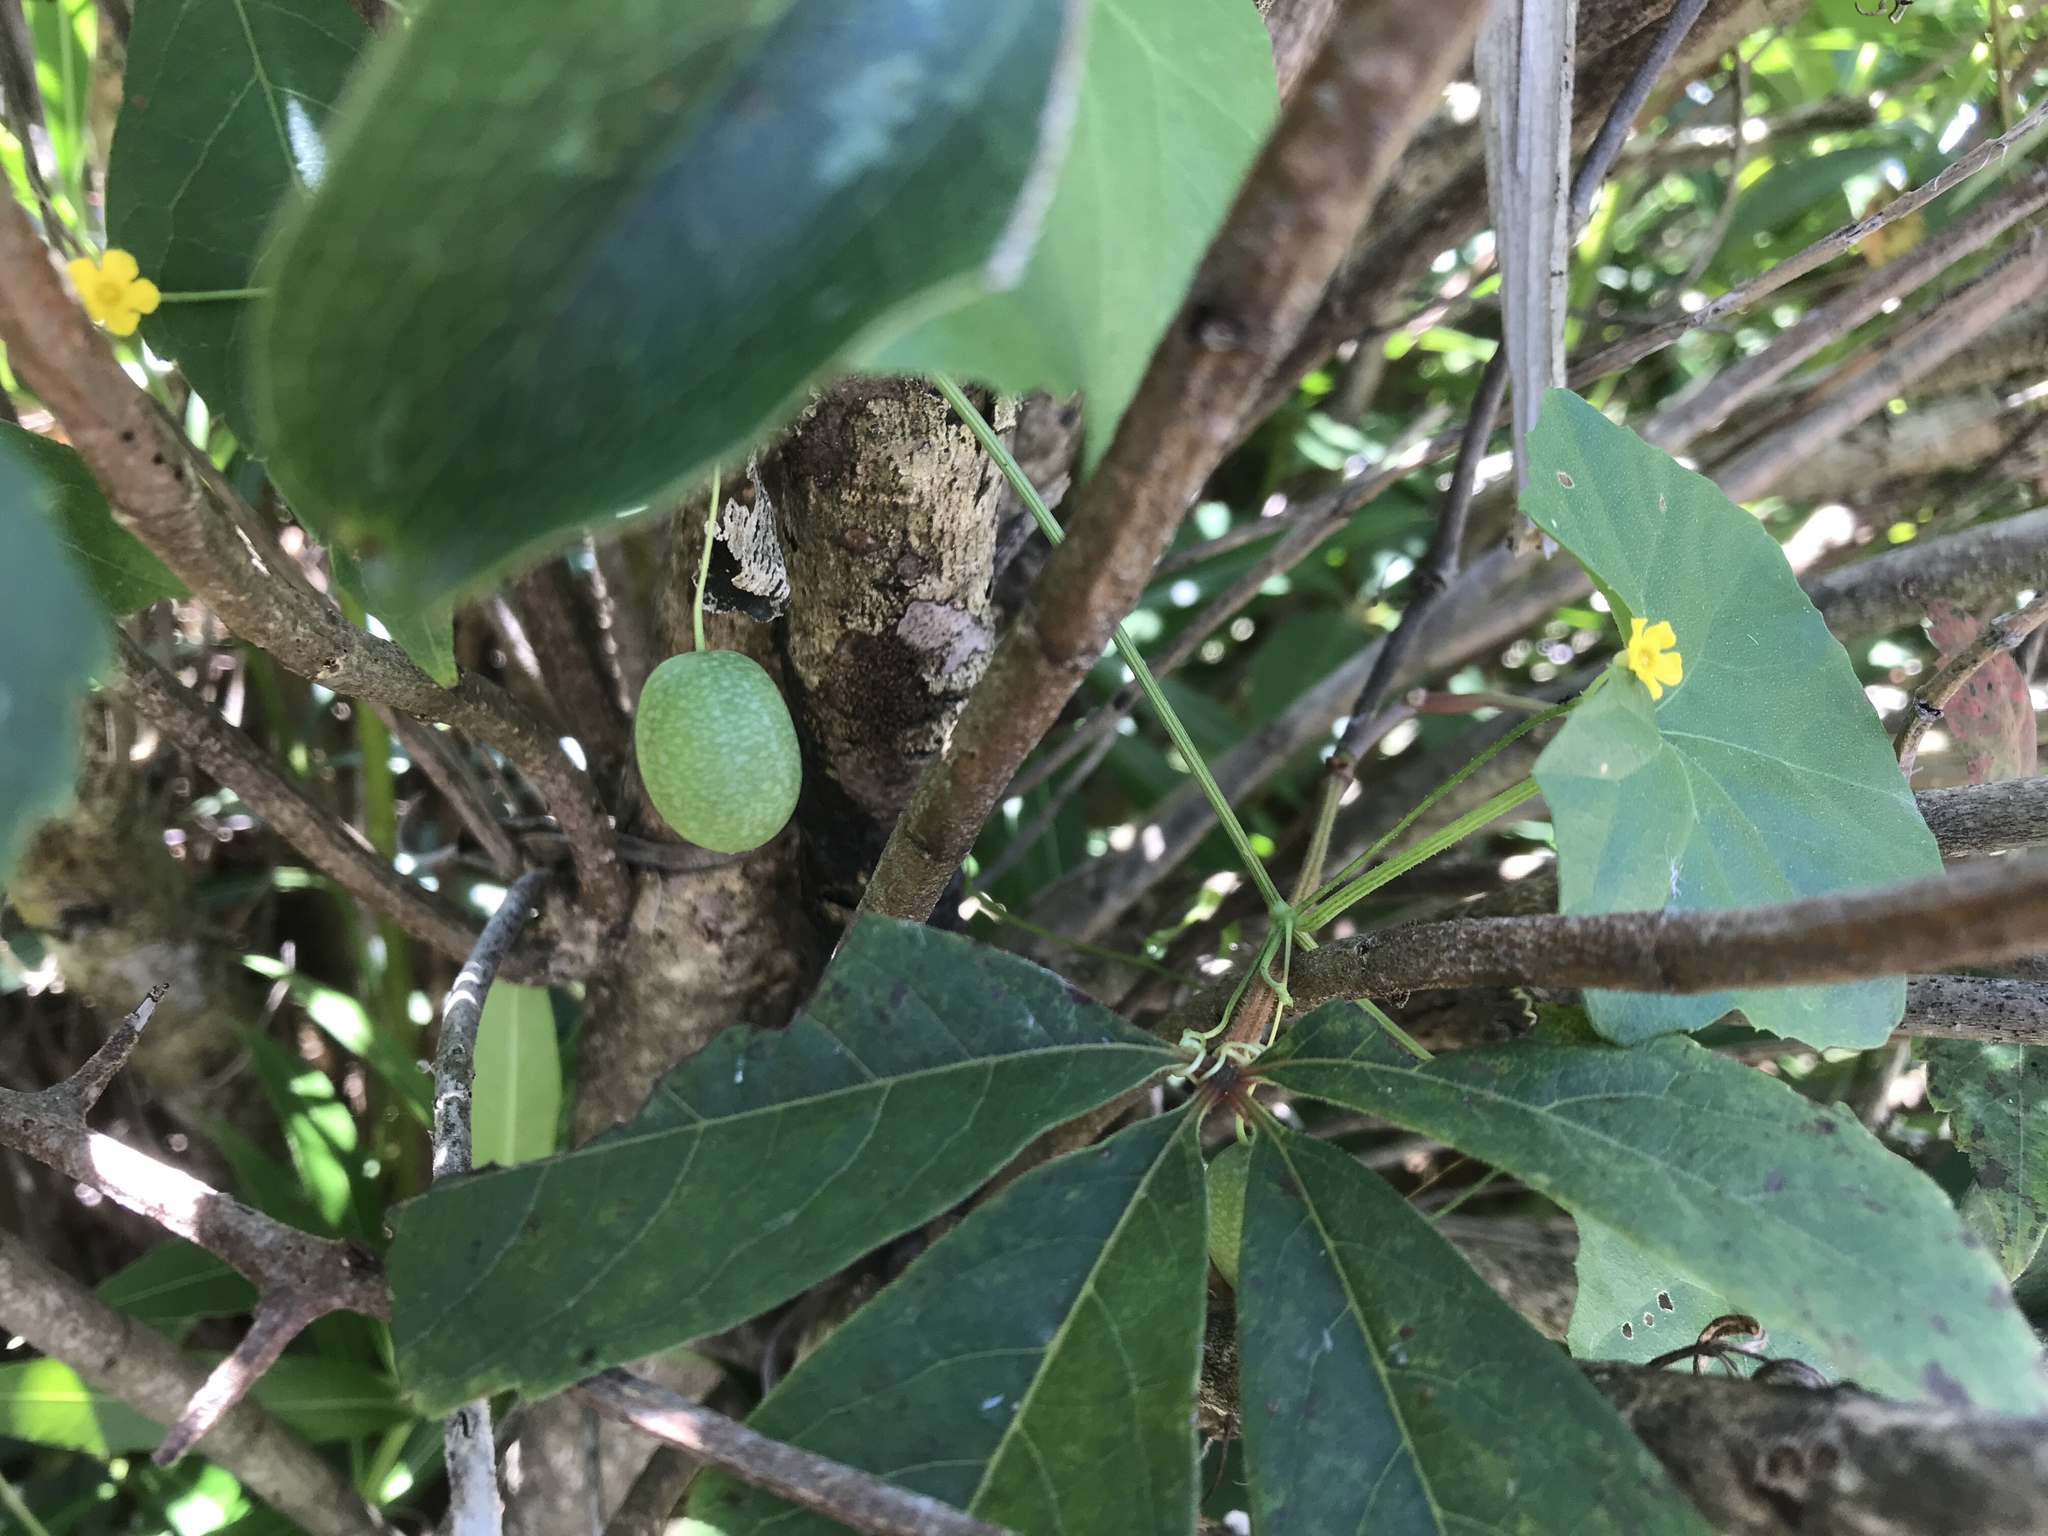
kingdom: Plantae
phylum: Tracheophyta
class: Magnoliopsida
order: Cucurbitales
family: Cucurbitaceae
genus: Melothria
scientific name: Melothria pendula
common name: Creeping-cucumber
